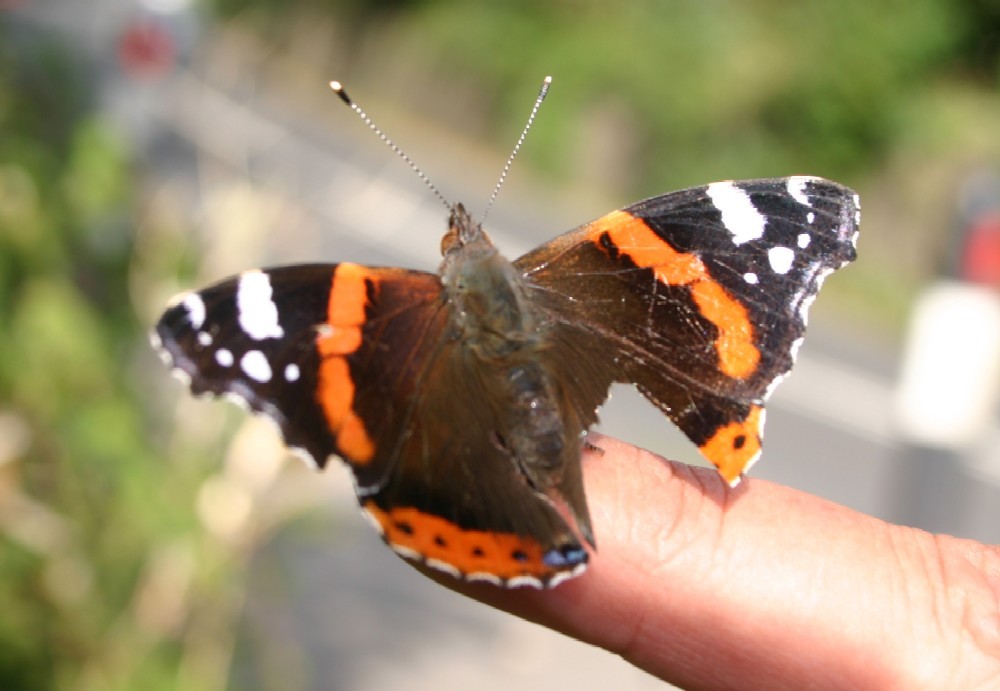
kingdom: Animalia
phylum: Arthropoda
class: Insecta
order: Lepidoptera
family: Nymphalidae
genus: Vanessa
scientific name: Vanessa atalanta
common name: Red admiral
